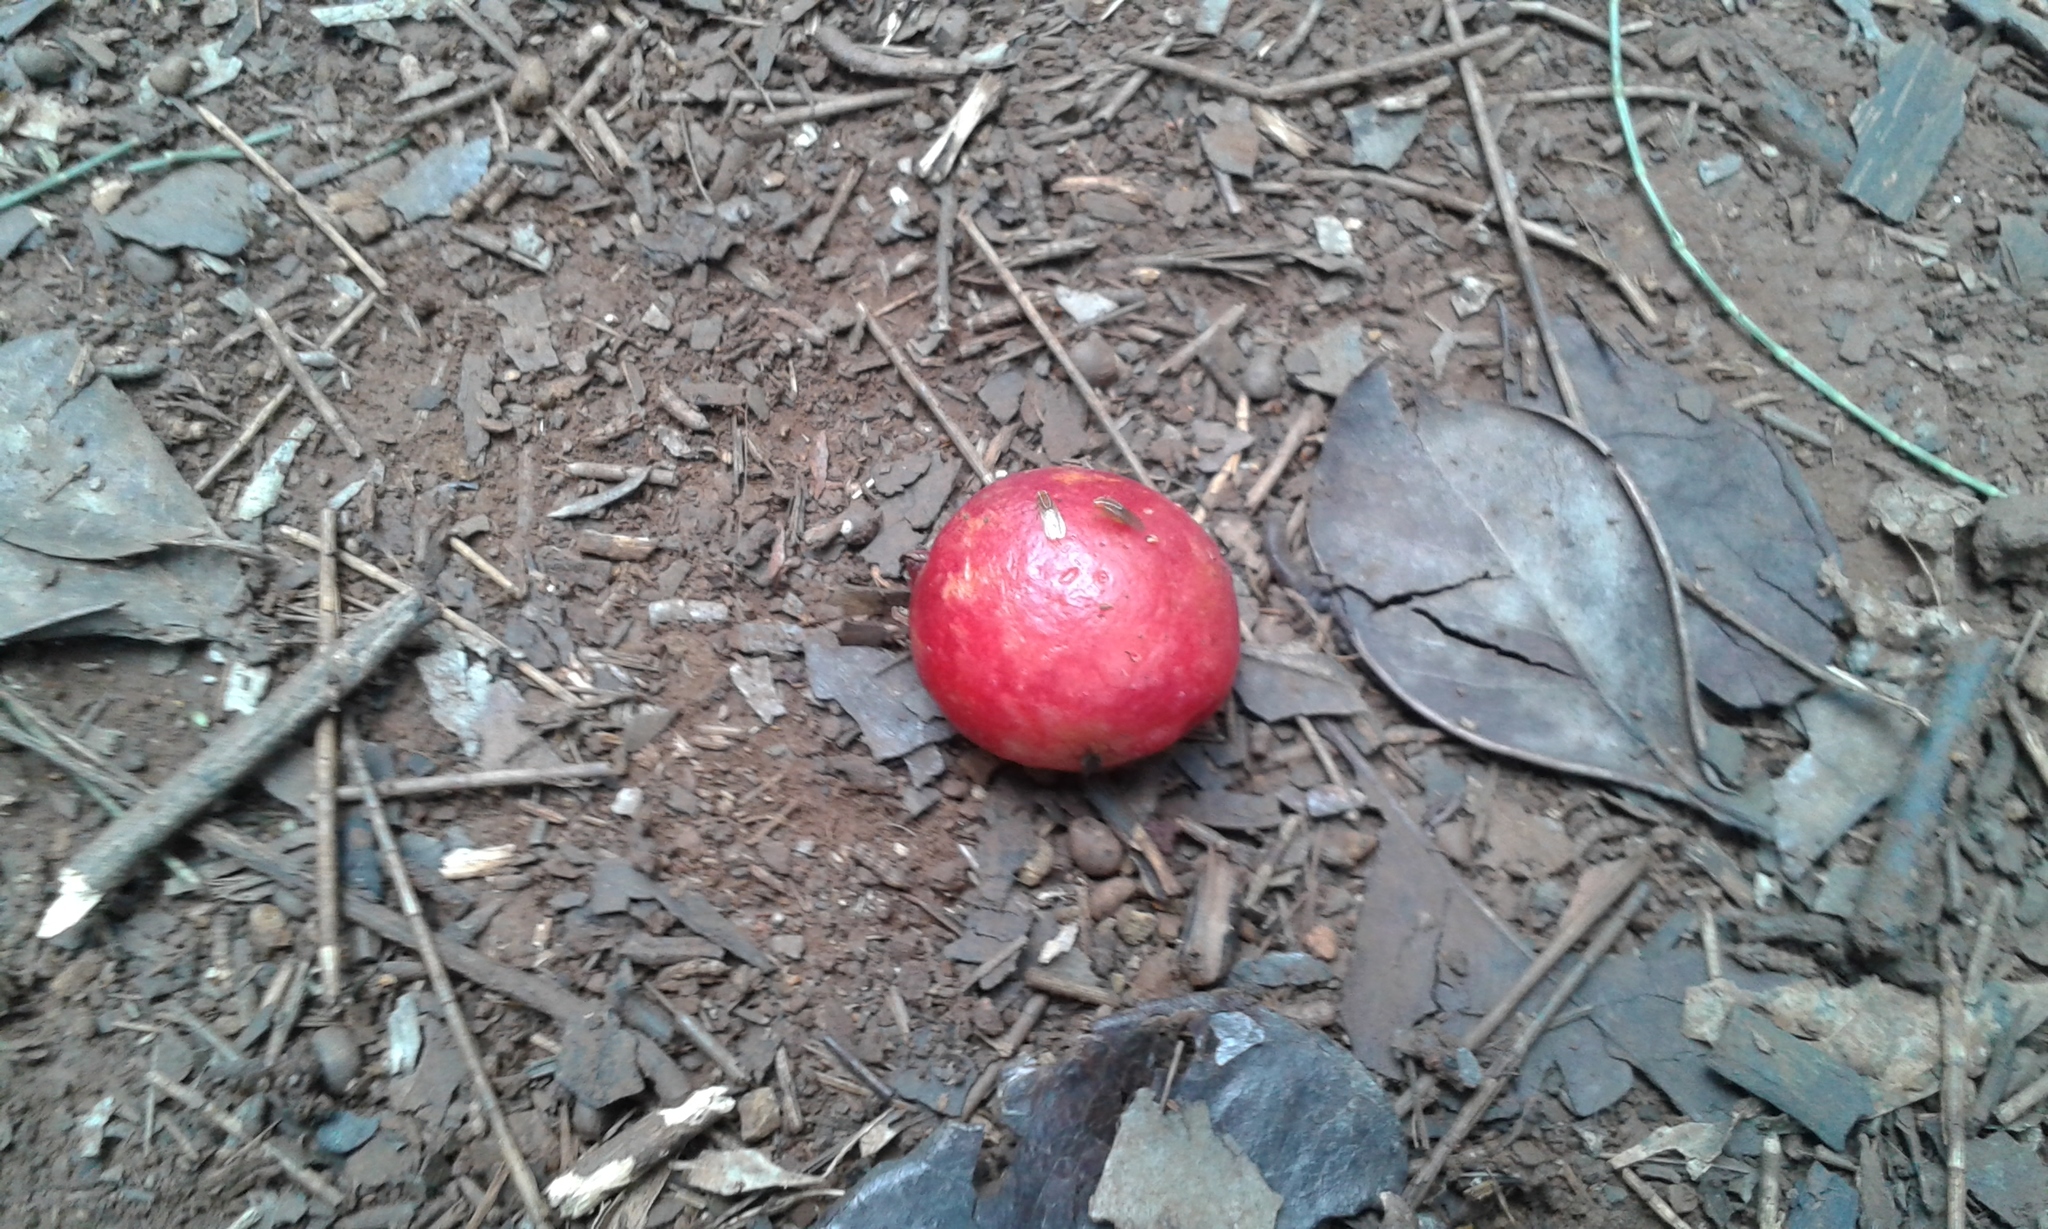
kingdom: Animalia
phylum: Arthropoda
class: Insecta
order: Diptera
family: Drosophilidae
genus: Zaprionus
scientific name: Zaprionus
